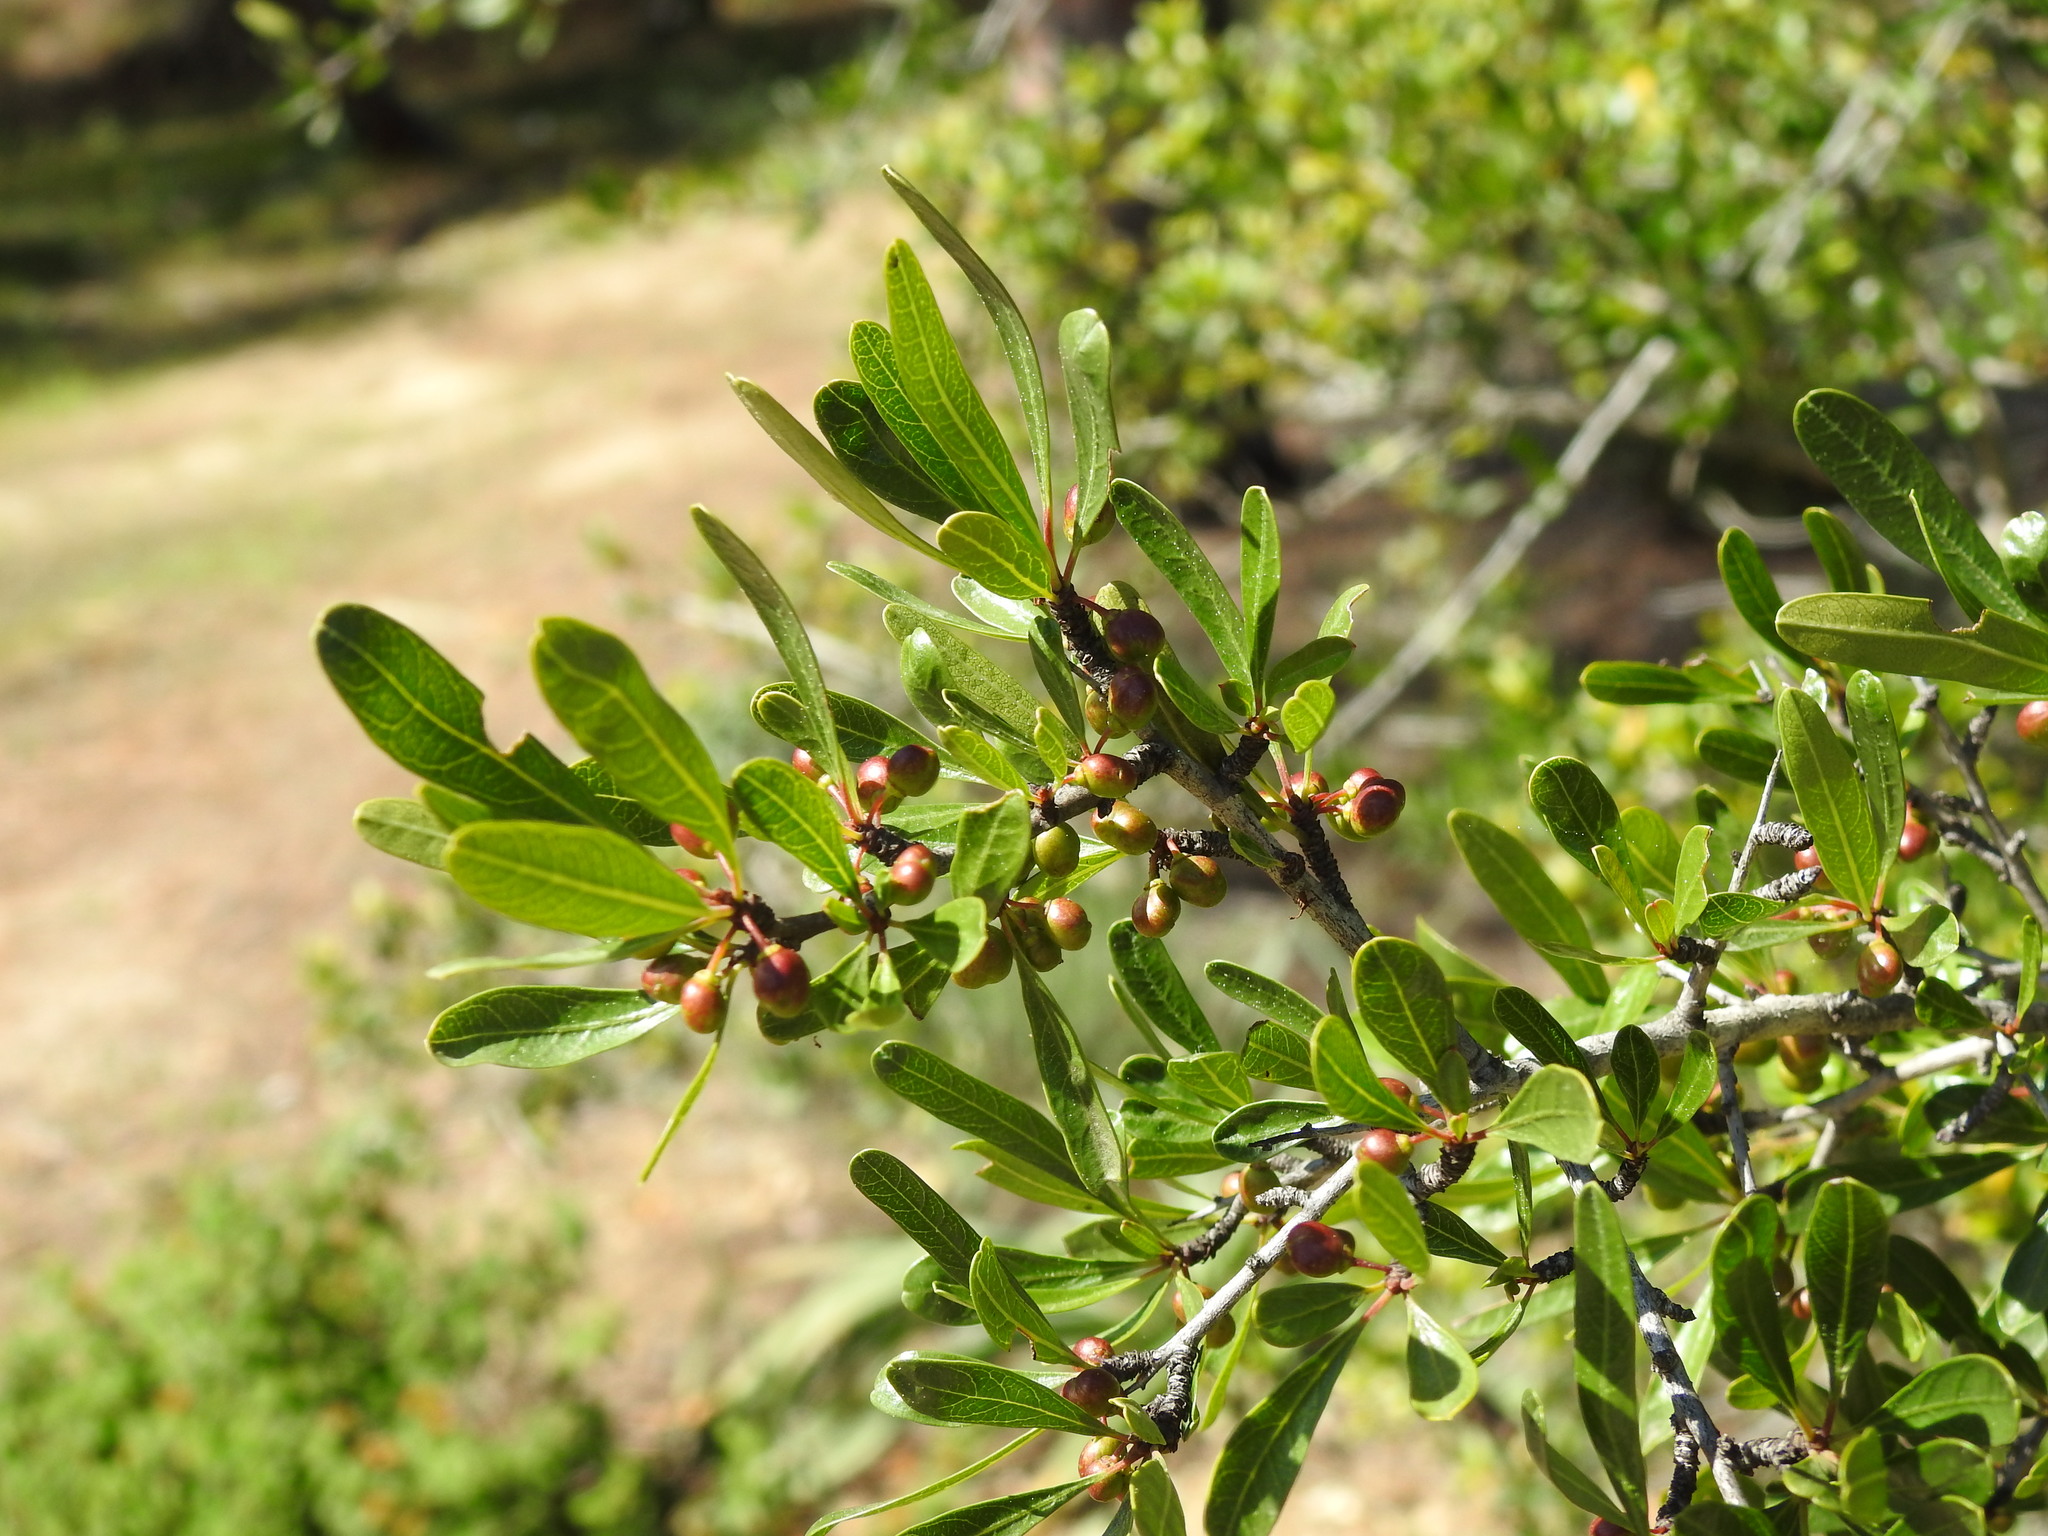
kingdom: Plantae
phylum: Tracheophyta
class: Magnoliopsida
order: Rosales
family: Rhamnaceae
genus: Rhamnus
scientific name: Rhamnus oleoides
